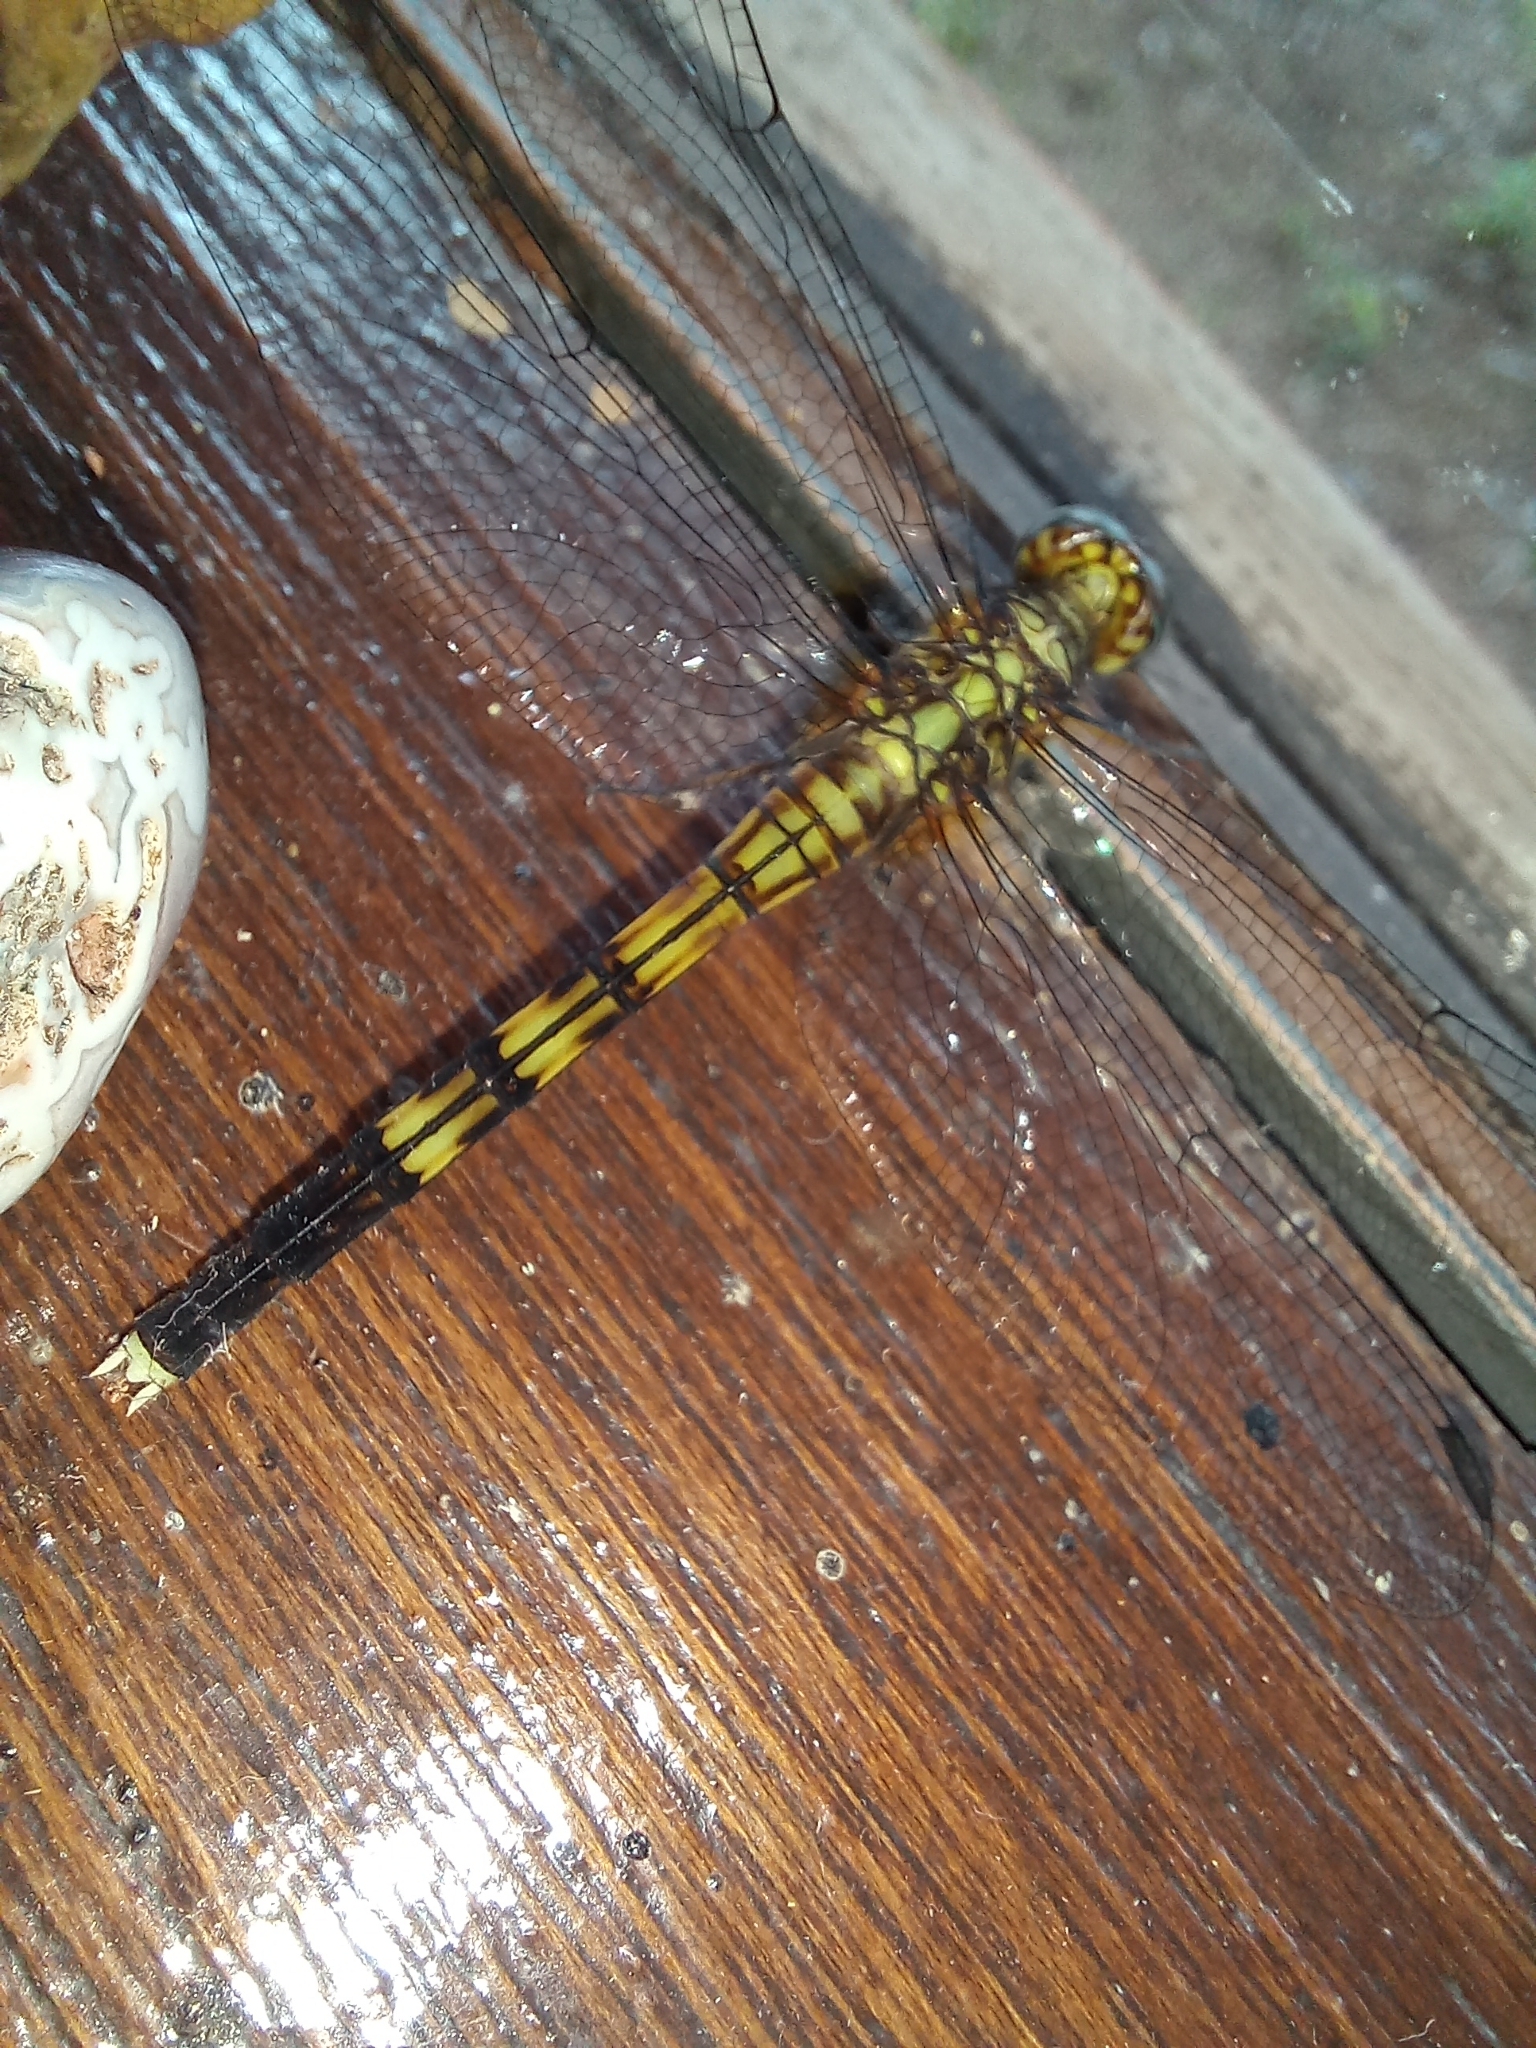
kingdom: Animalia
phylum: Arthropoda
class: Insecta
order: Odonata
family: Libellulidae
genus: Orthetrum
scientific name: Orthetrum julia
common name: Julia skimmer
